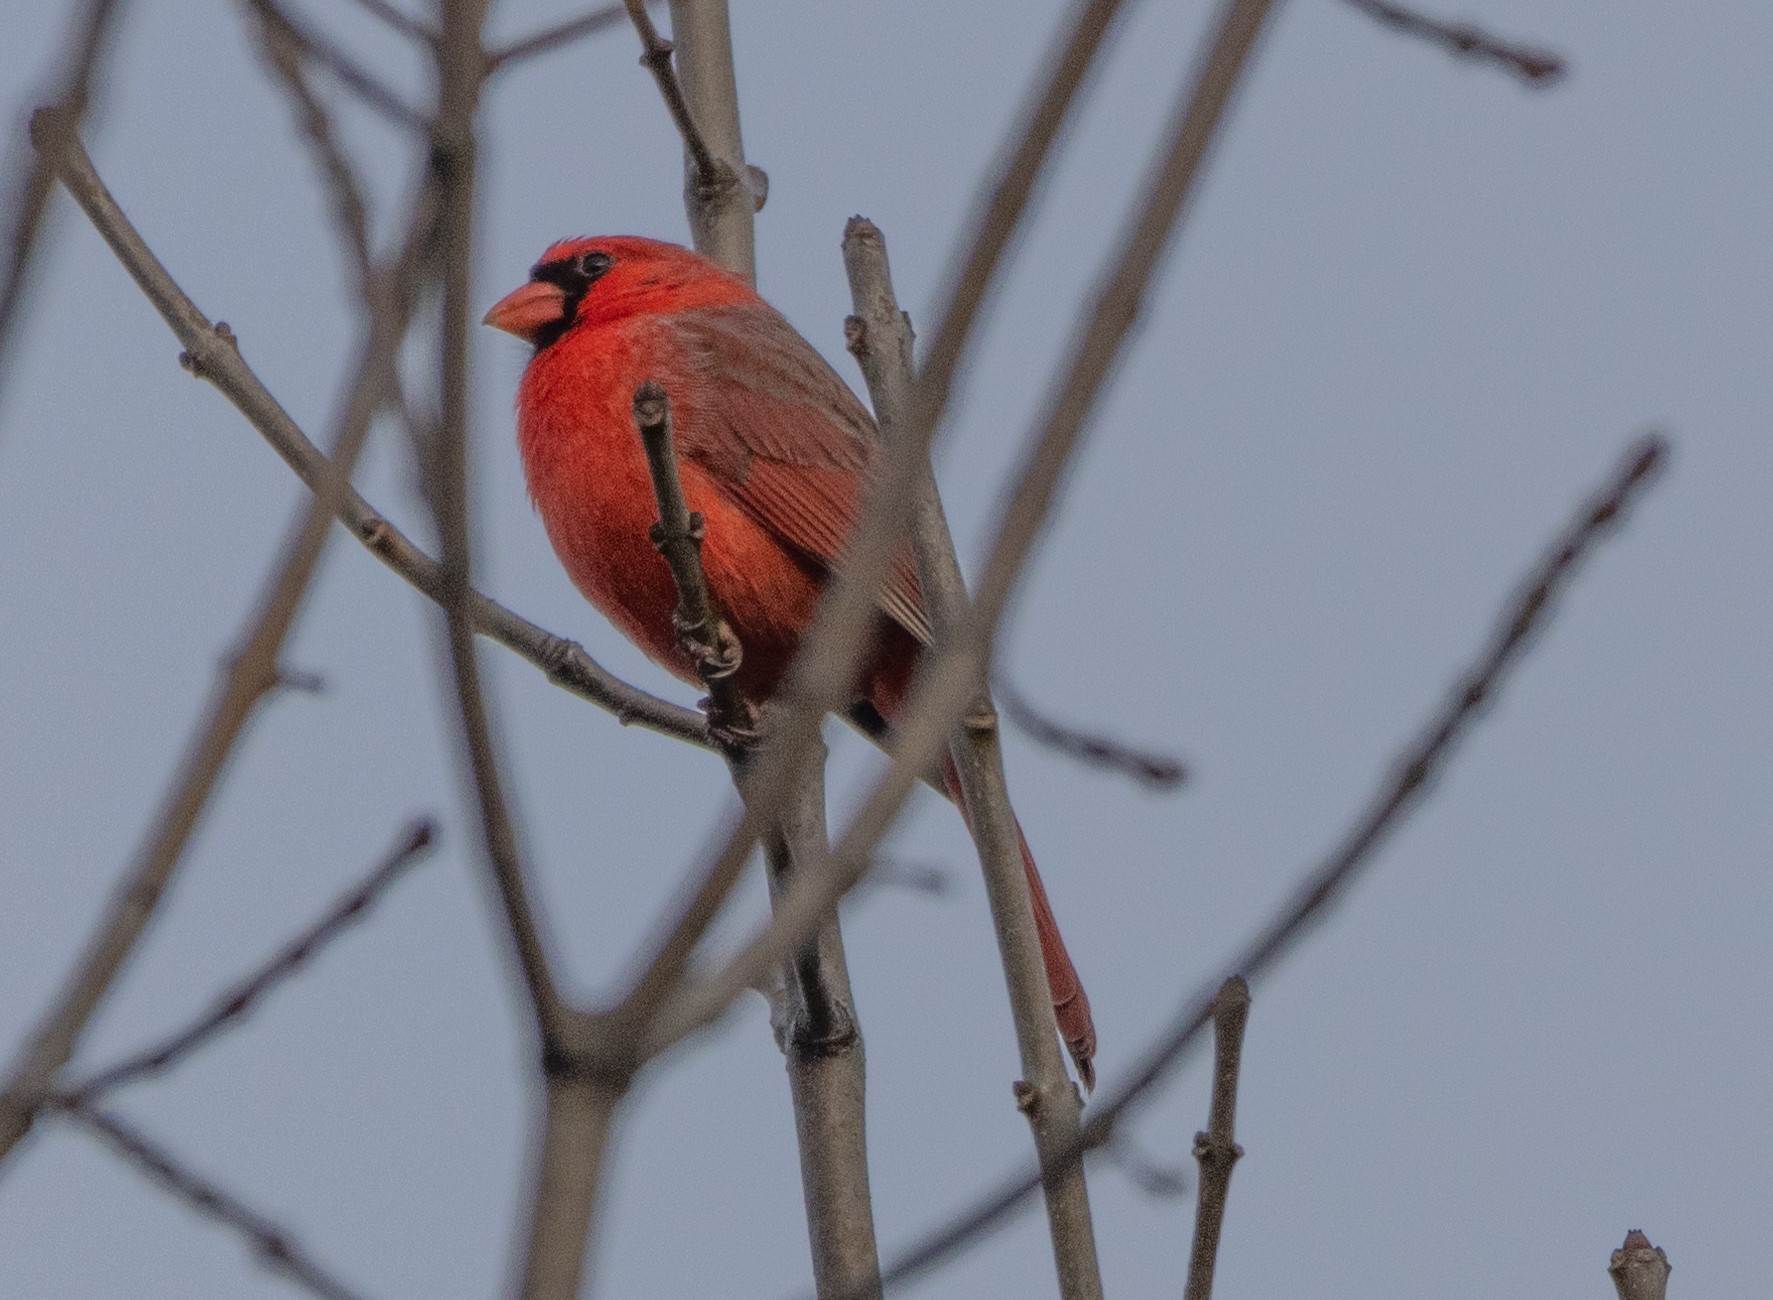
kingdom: Animalia
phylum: Chordata
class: Aves
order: Passeriformes
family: Cardinalidae
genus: Cardinalis
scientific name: Cardinalis cardinalis
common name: Northern cardinal
